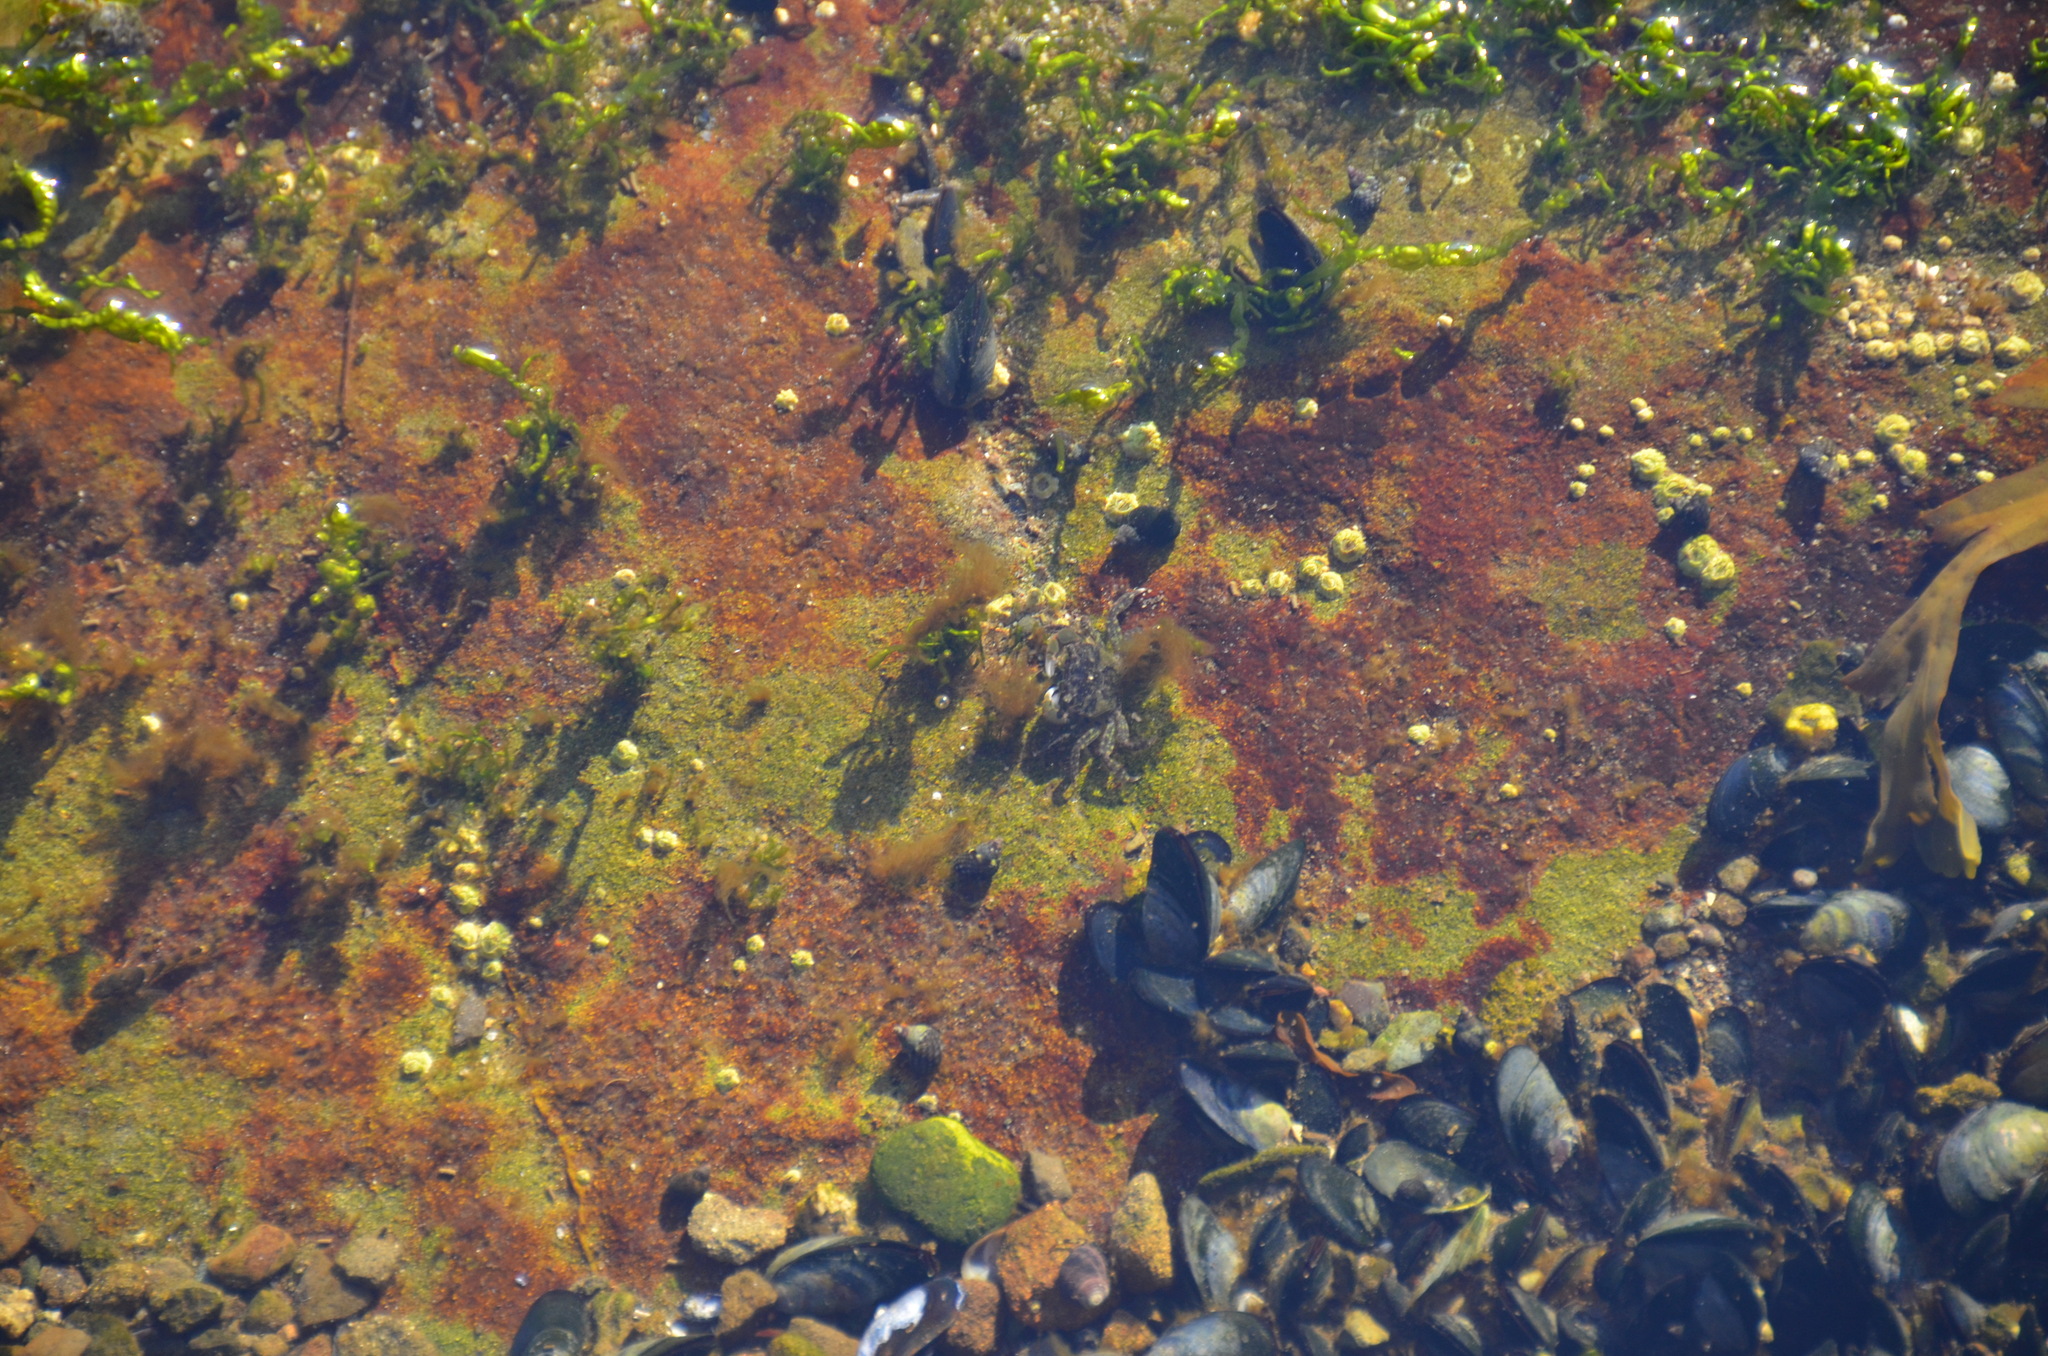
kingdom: Animalia
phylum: Arthropoda
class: Malacostraca
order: Decapoda
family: Varunidae
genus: Hemigrapsus
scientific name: Hemigrapsus oregonensis
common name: Yellow shore crab
